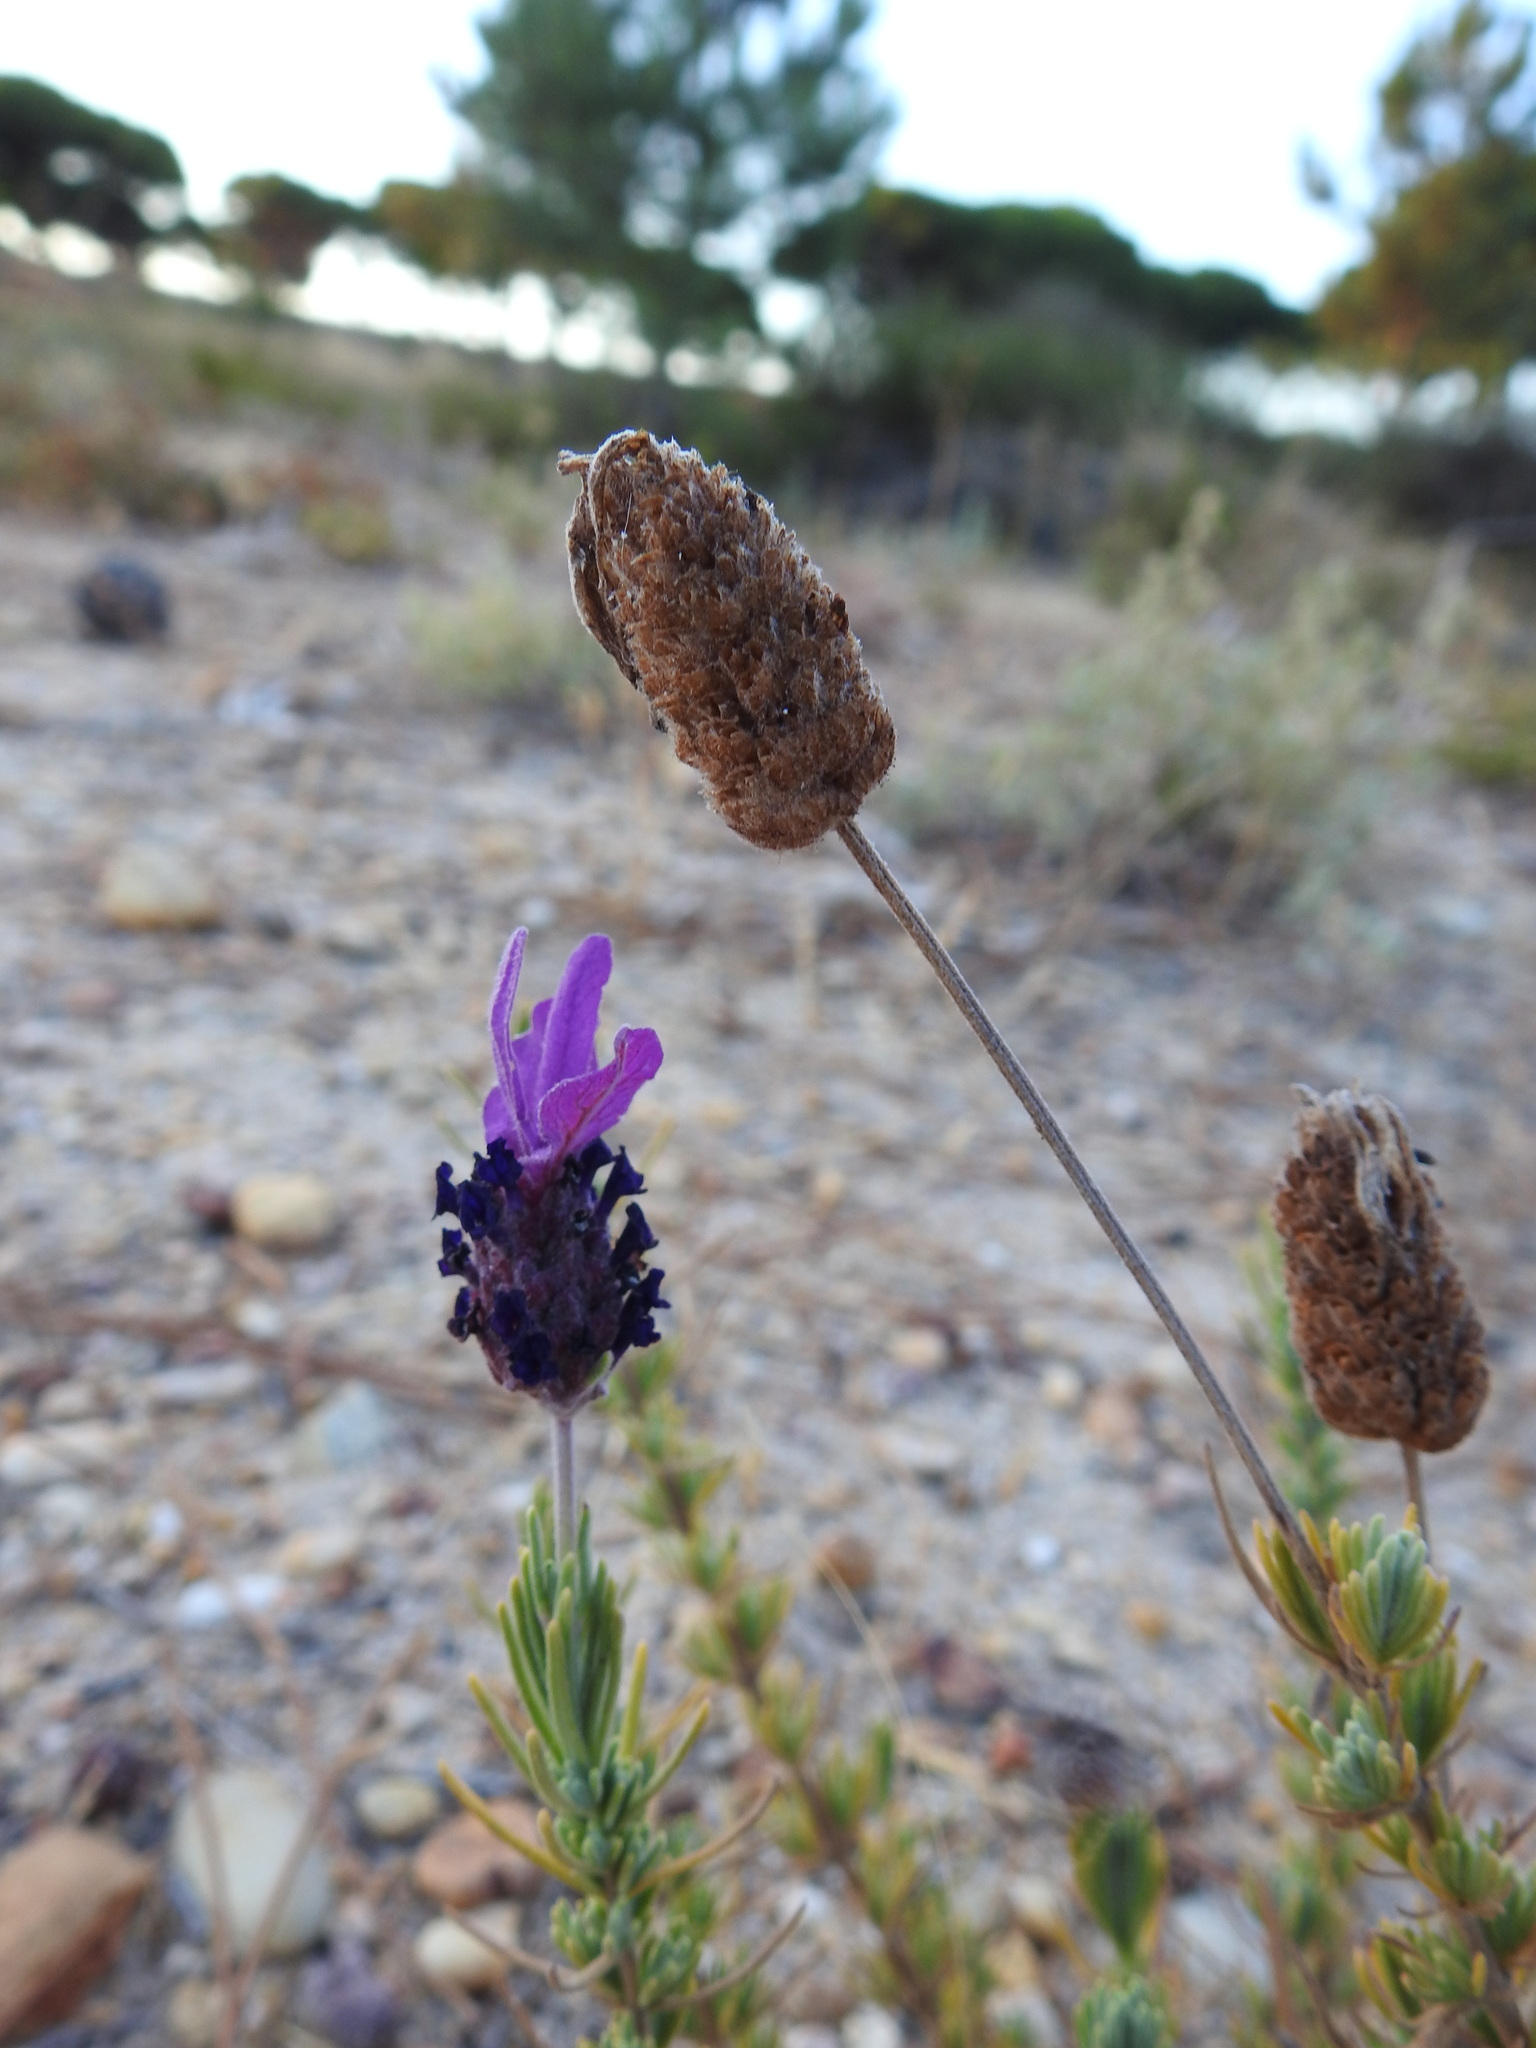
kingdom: Plantae
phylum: Tracheophyta
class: Magnoliopsida
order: Lamiales
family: Lamiaceae
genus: Lavandula
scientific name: Lavandula pedunculata
